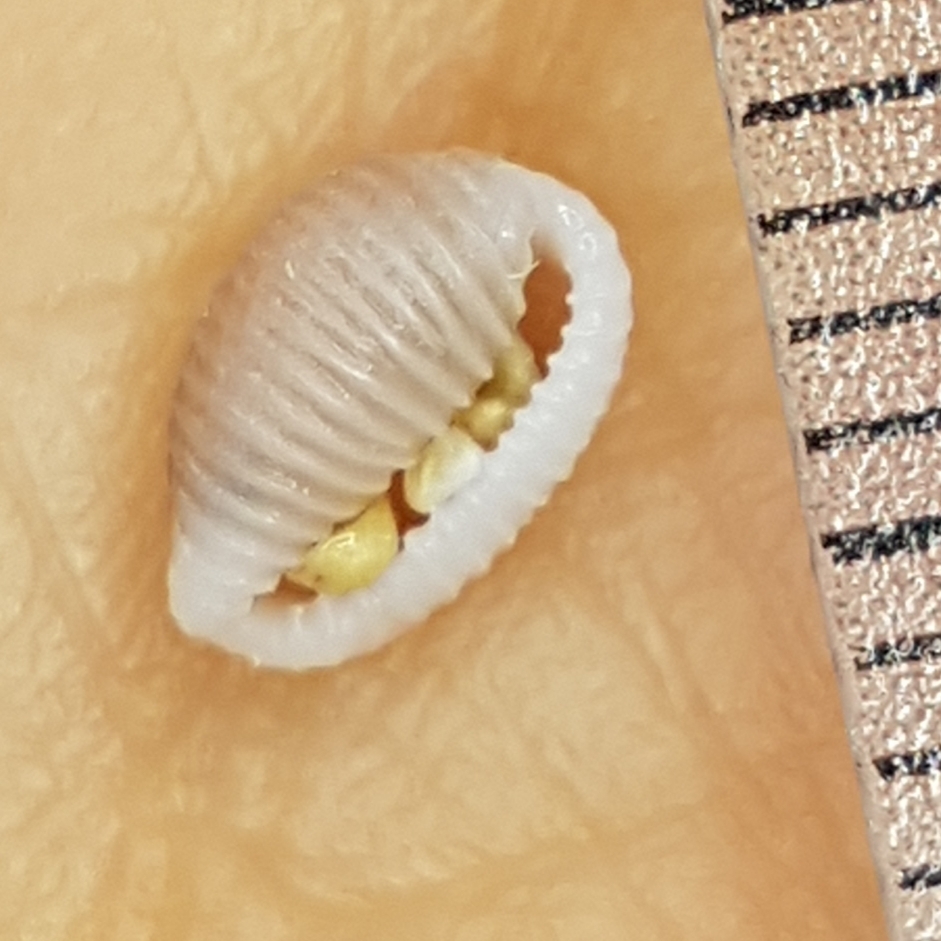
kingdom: Animalia
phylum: Mollusca
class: Gastropoda
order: Littorinimorpha
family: Triviidae
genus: Trivia
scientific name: Trivia mediterranea
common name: Mediterranean trivia
